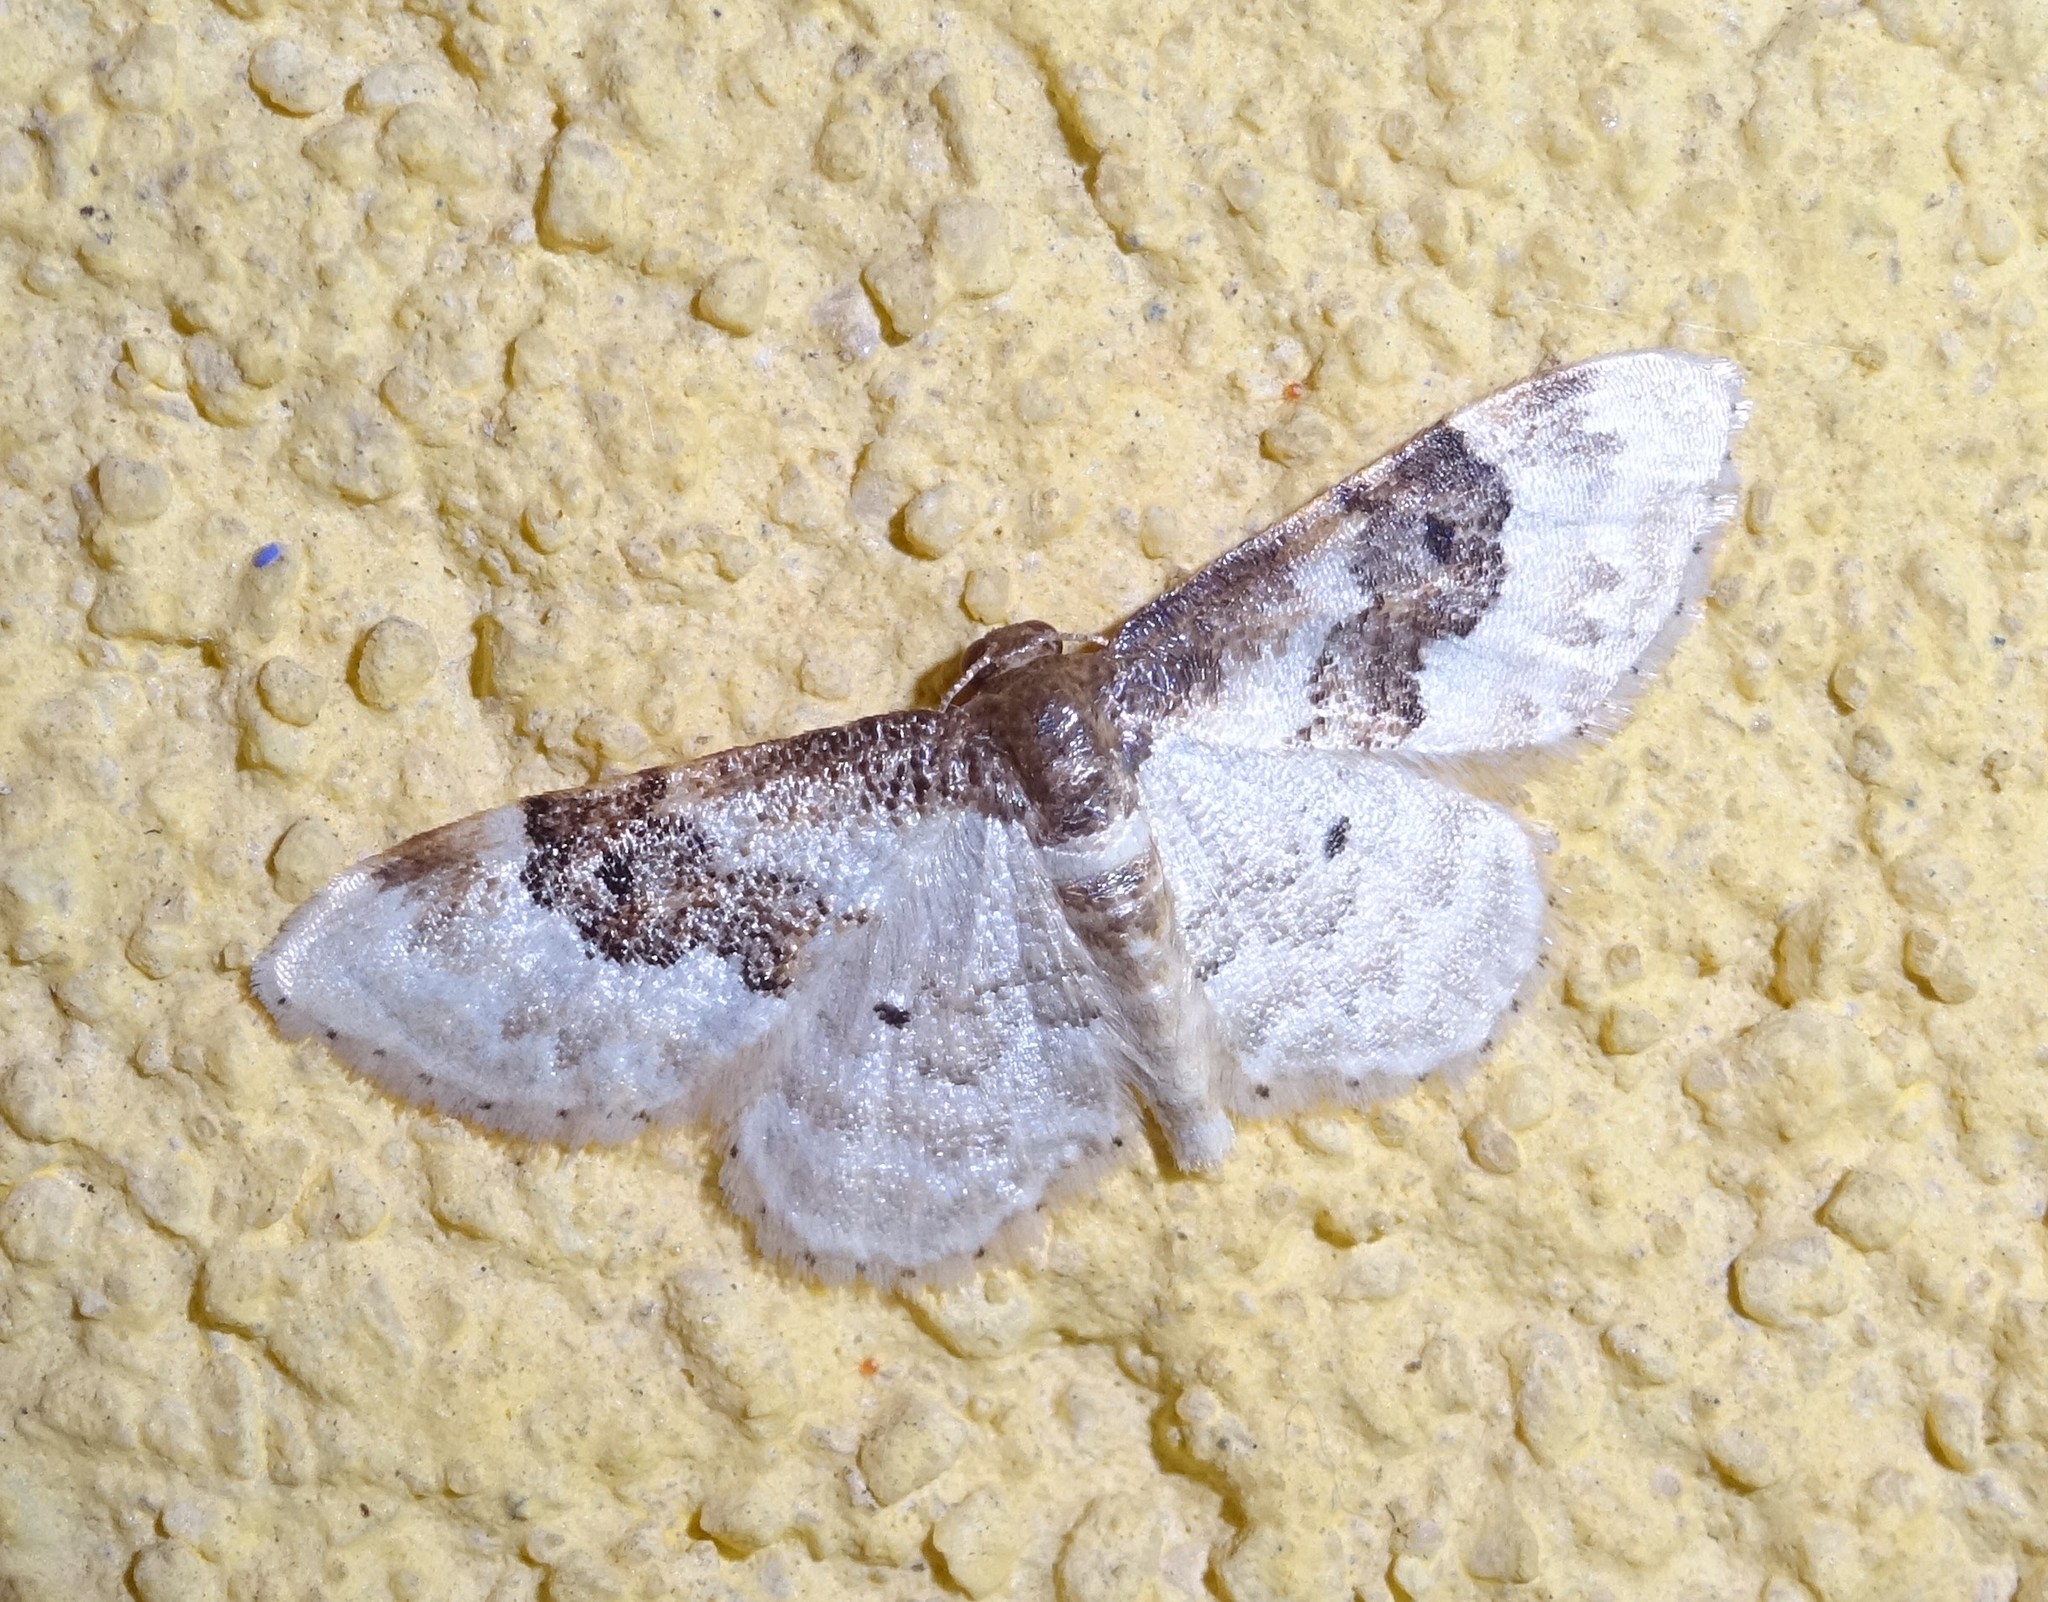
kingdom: Animalia
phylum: Arthropoda
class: Insecta
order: Lepidoptera
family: Geometridae
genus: Idaea
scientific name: Idaea rusticata
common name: Least carpet
